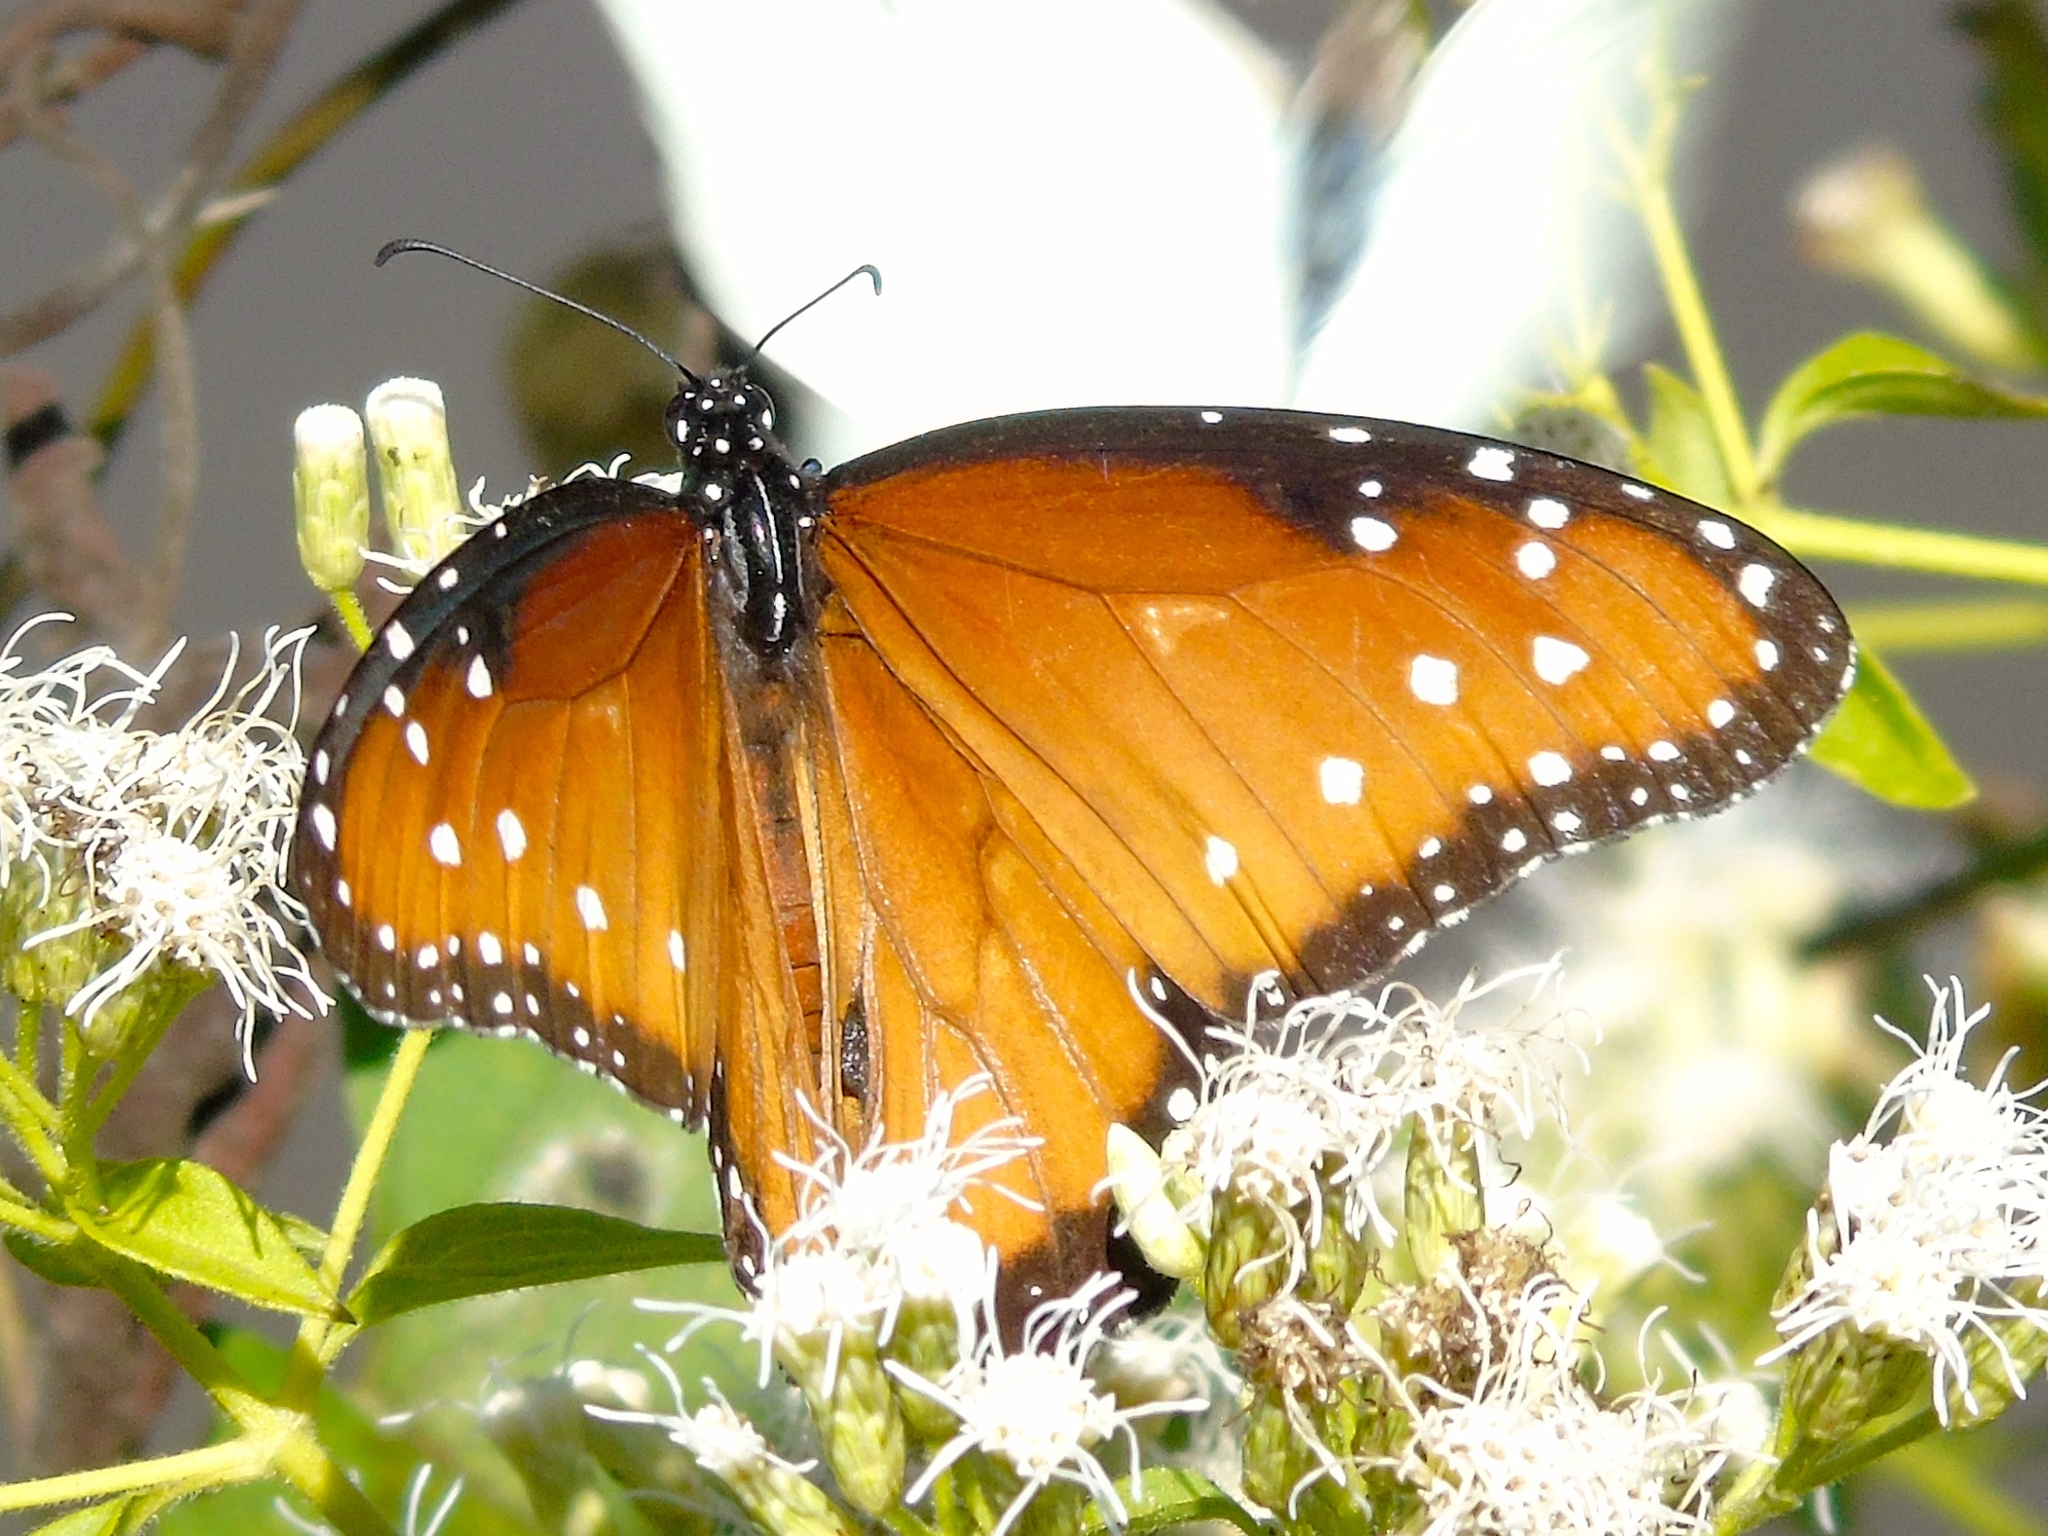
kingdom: Animalia
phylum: Arthropoda
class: Insecta
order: Lepidoptera
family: Nymphalidae
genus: Danaus
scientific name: Danaus gilippus
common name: Queen
